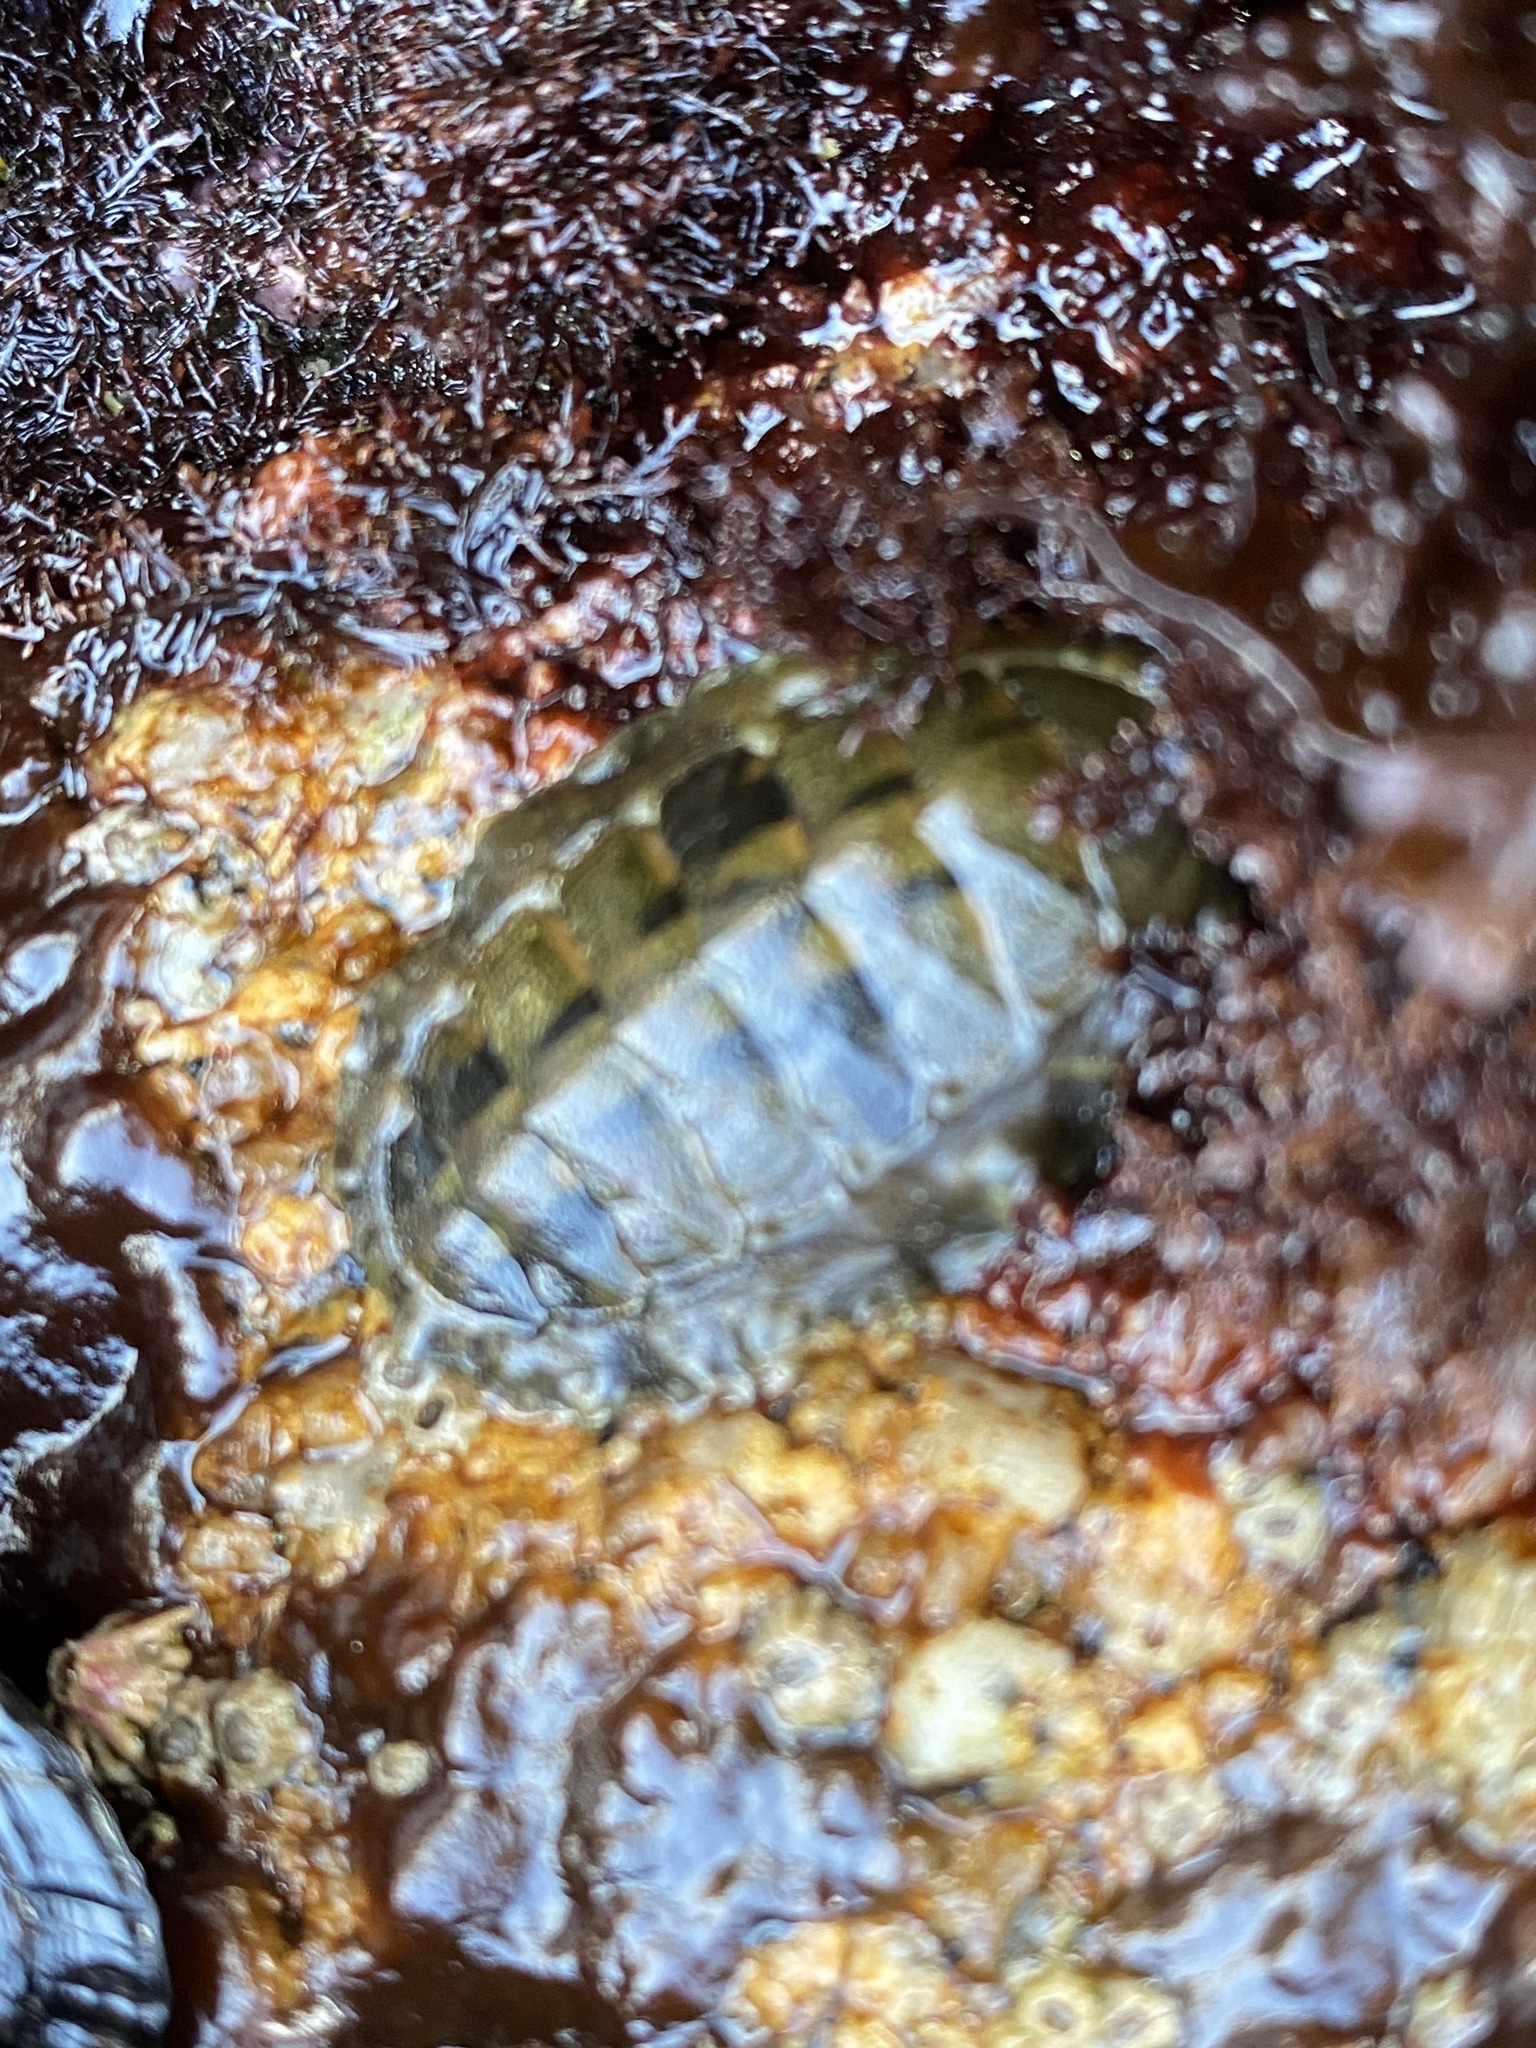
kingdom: Animalia
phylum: Mollusca
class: Polyplacophora
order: Chitonida
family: Tonicellidae
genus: Cyanoplax
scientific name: Cyanoplax hartwegii
